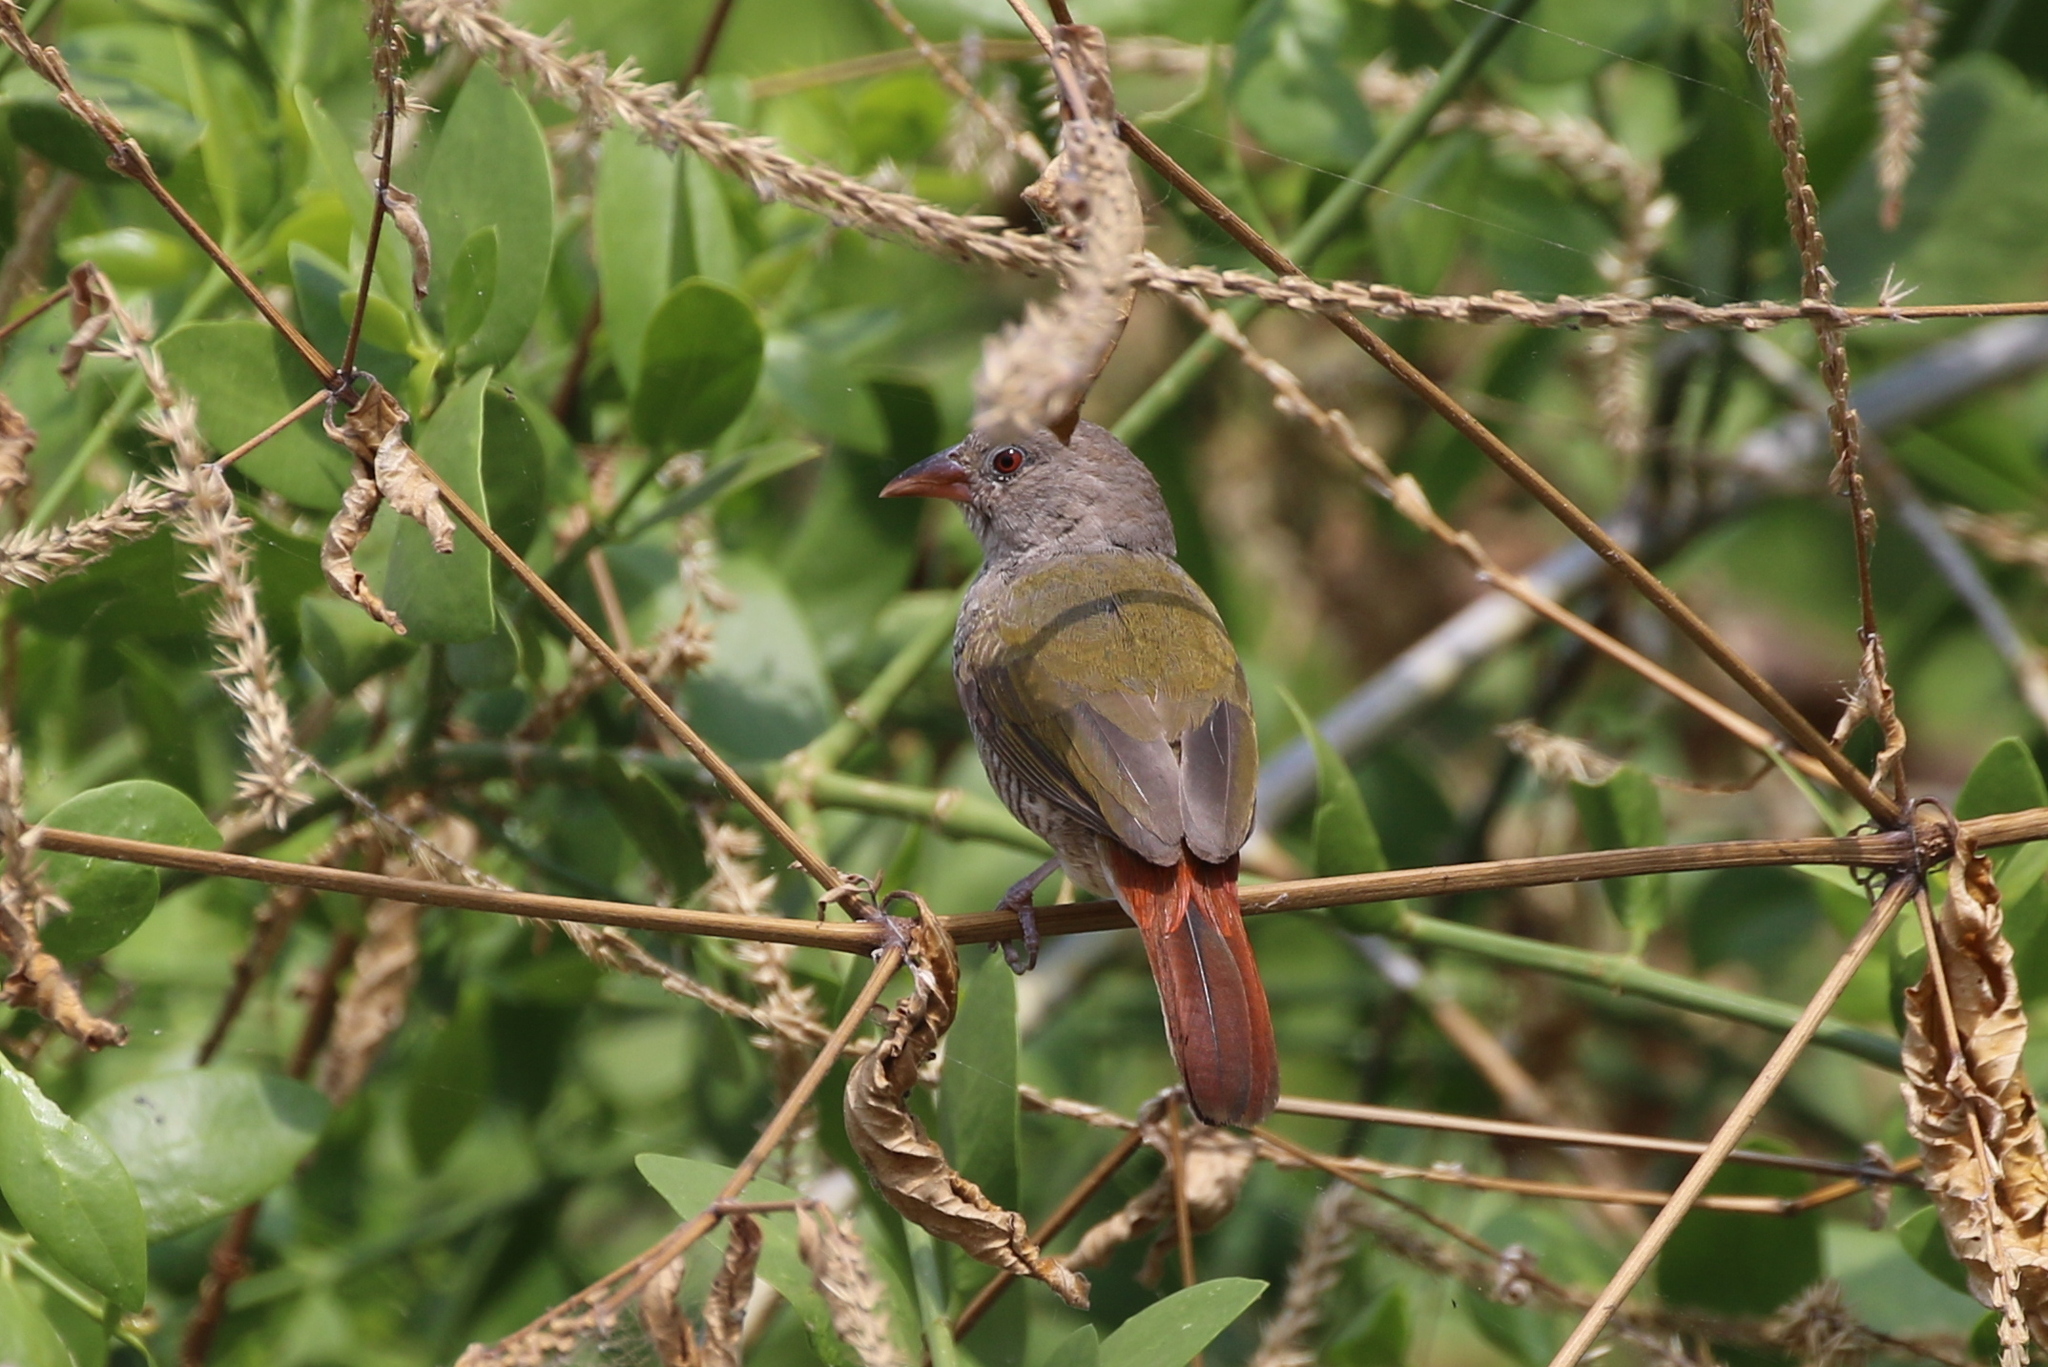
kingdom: Animalia
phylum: Chordata
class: Aves
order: Passeriformes
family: Estrildidae
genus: Pytilia
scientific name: Pytilia melba
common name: Green-winged pytilia
